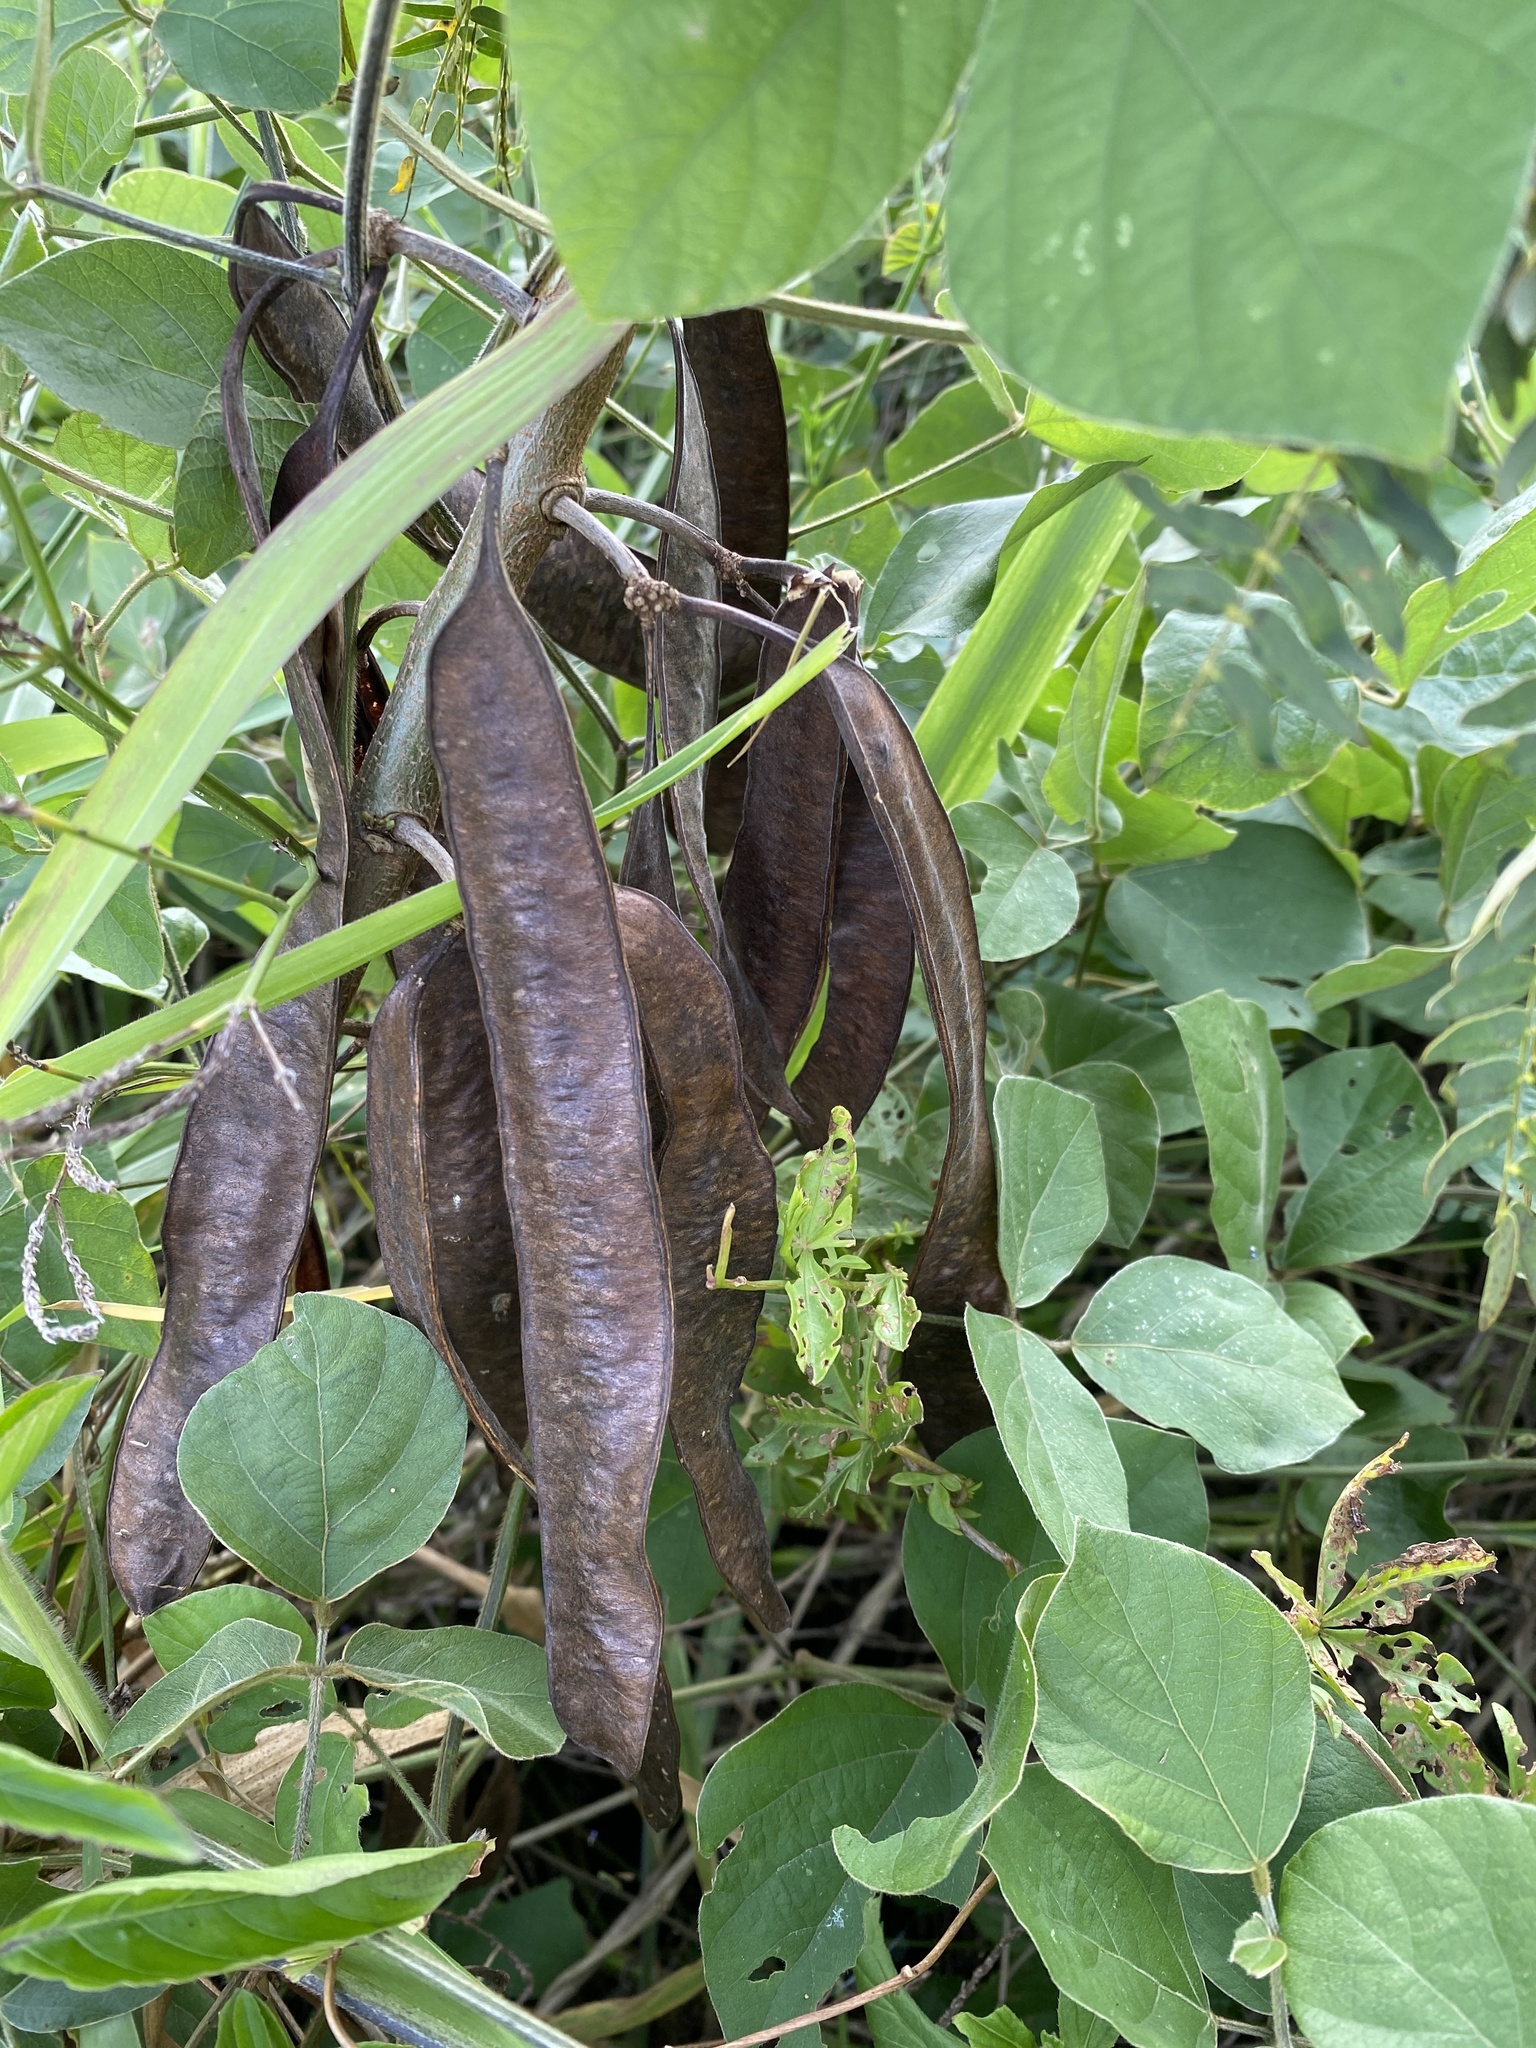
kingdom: Plantae
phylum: Tracheophyta
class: Magnoliopsida
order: Fabales
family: Fabaceae
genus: Leucaena
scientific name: Leucaena leucocephala
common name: White leadtree
